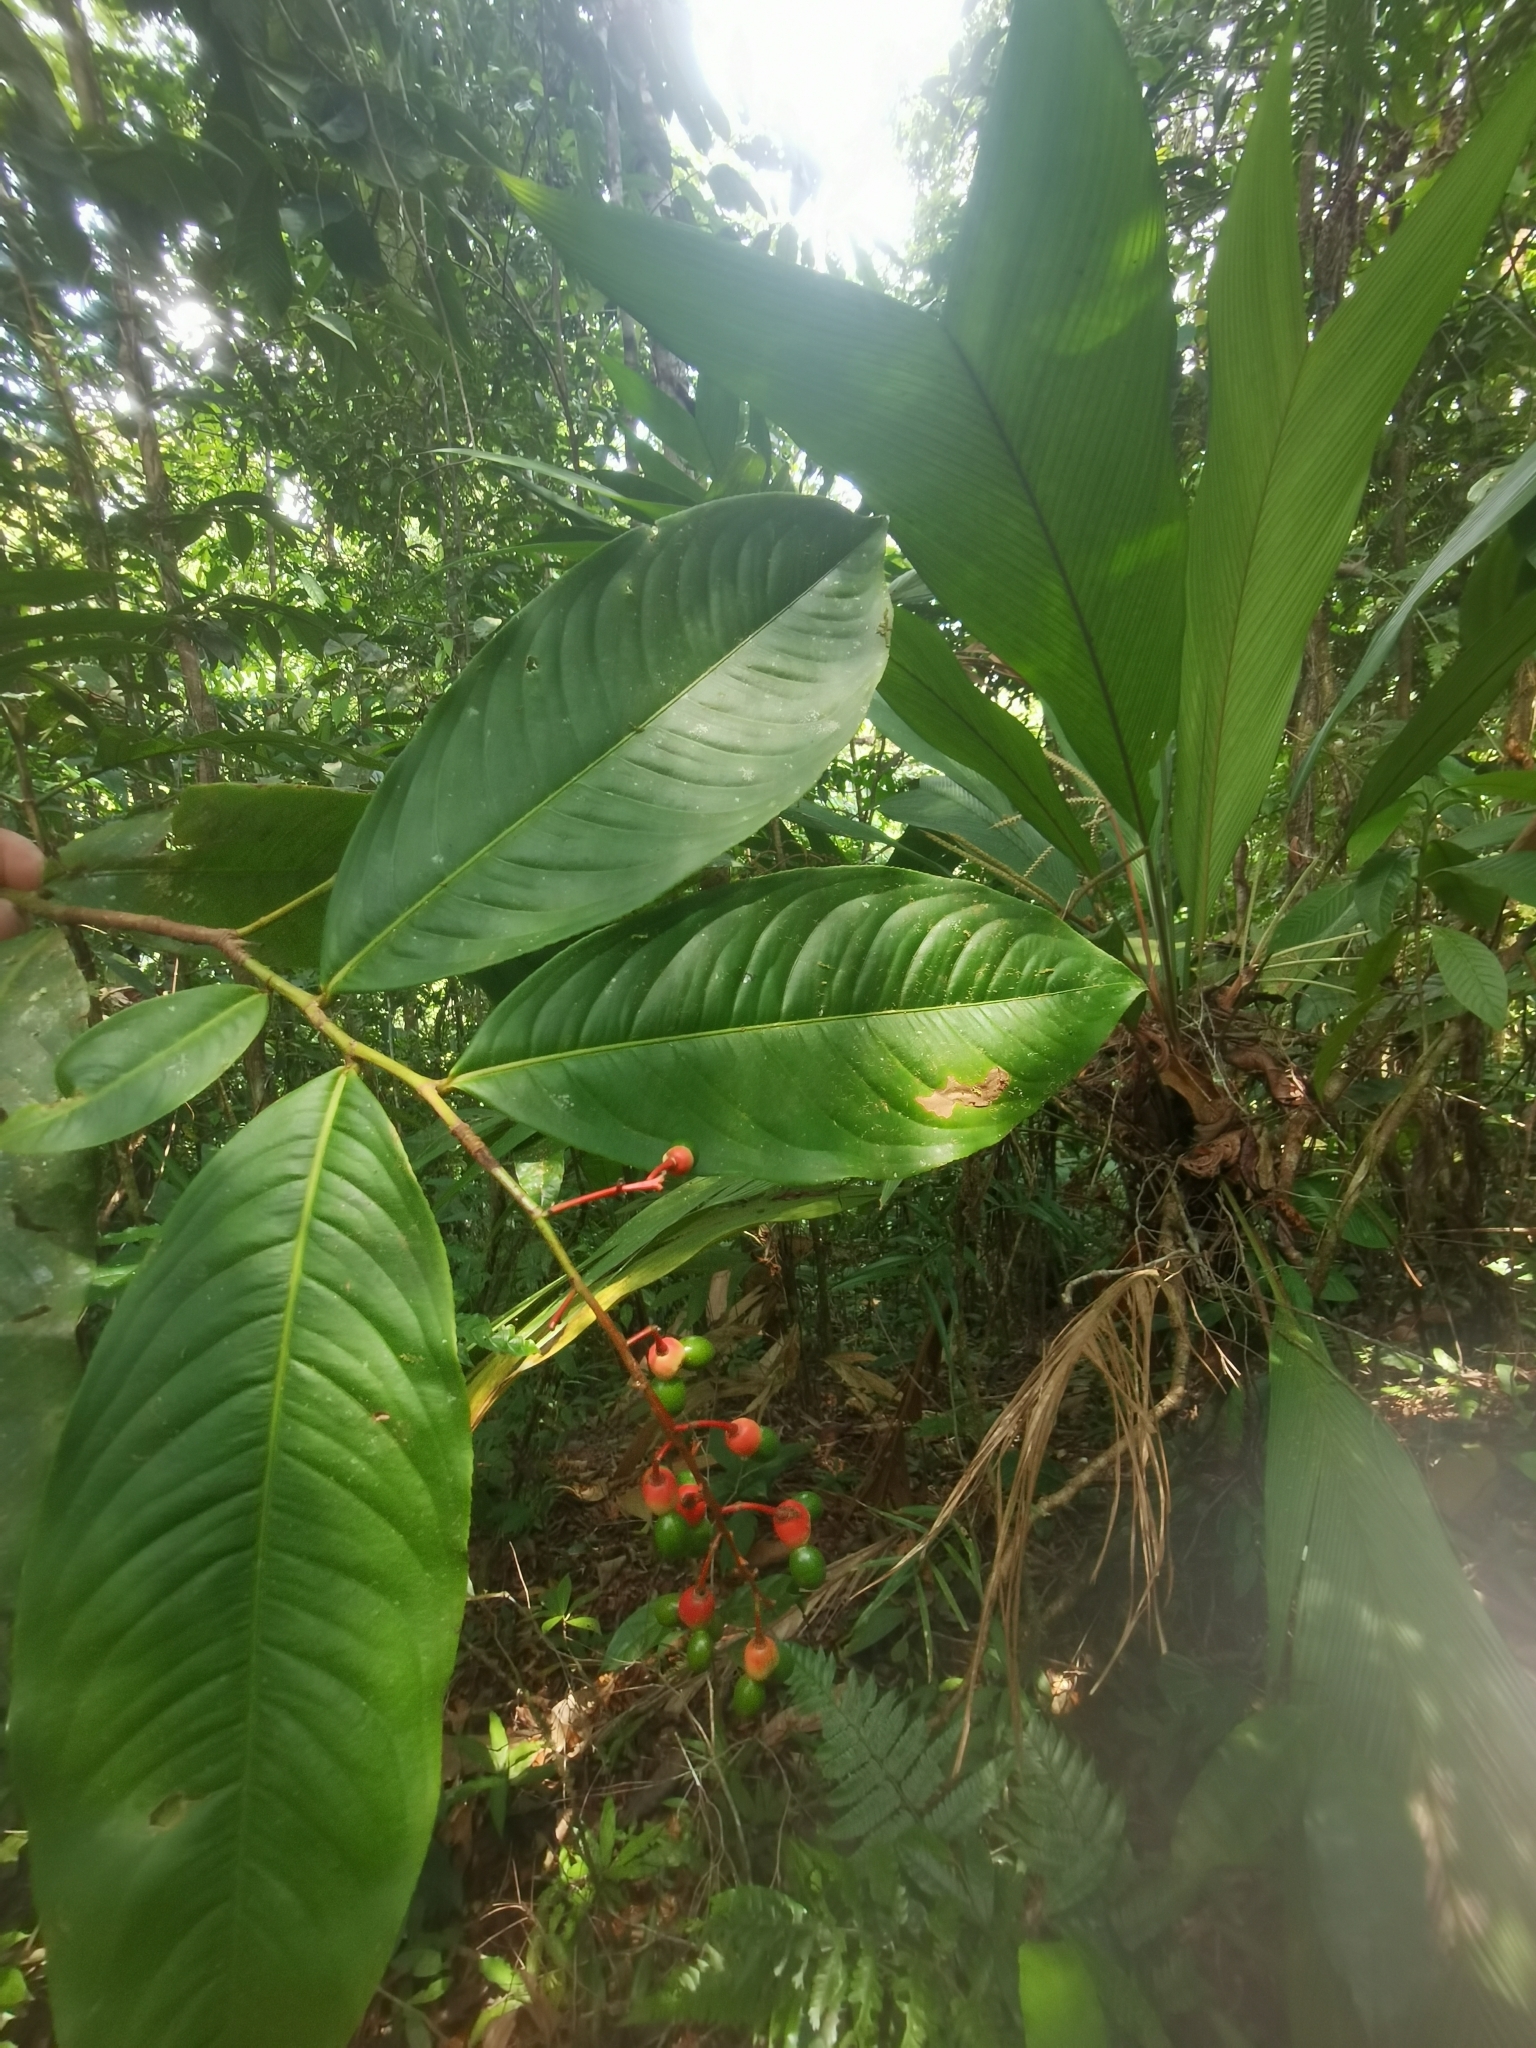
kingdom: Plantae
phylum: Tracheophyta
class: Magnoliopsida
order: Malpighiales
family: Ochnaceae
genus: Ouratea
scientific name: Ouratea rinconensis
